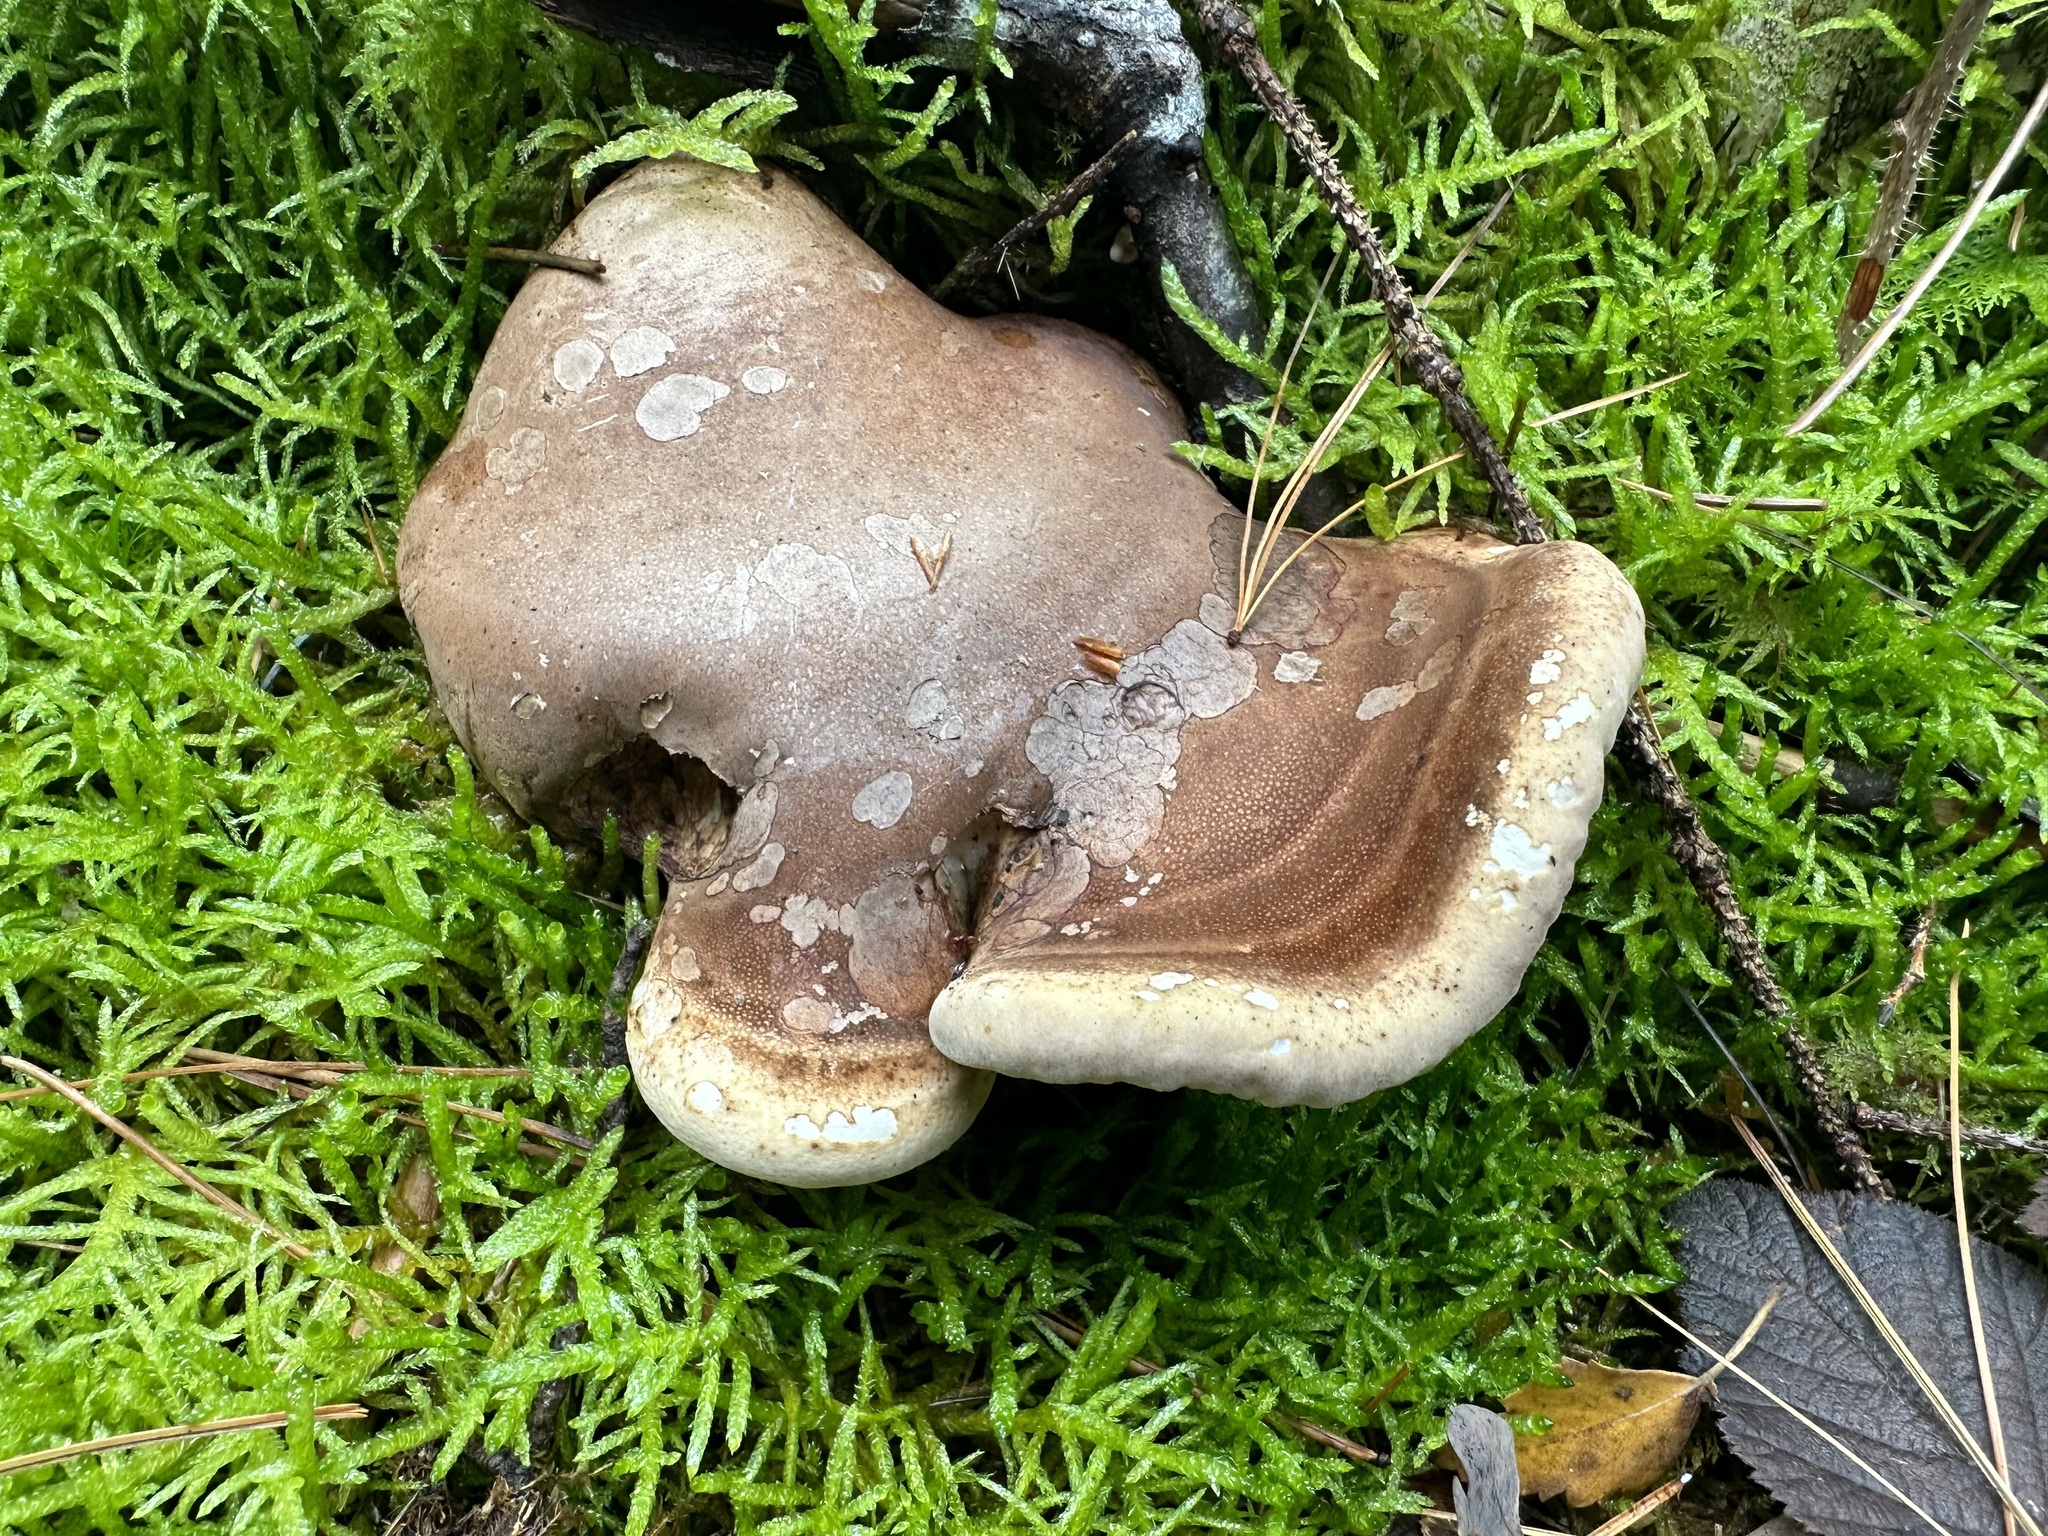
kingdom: Fungi
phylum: Basidiomycota
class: Agaricomycetes
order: Polyporales
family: Fomitopsidaceae
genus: Fomitopsis
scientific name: Fomitopsis betulina
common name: Birch polypore
